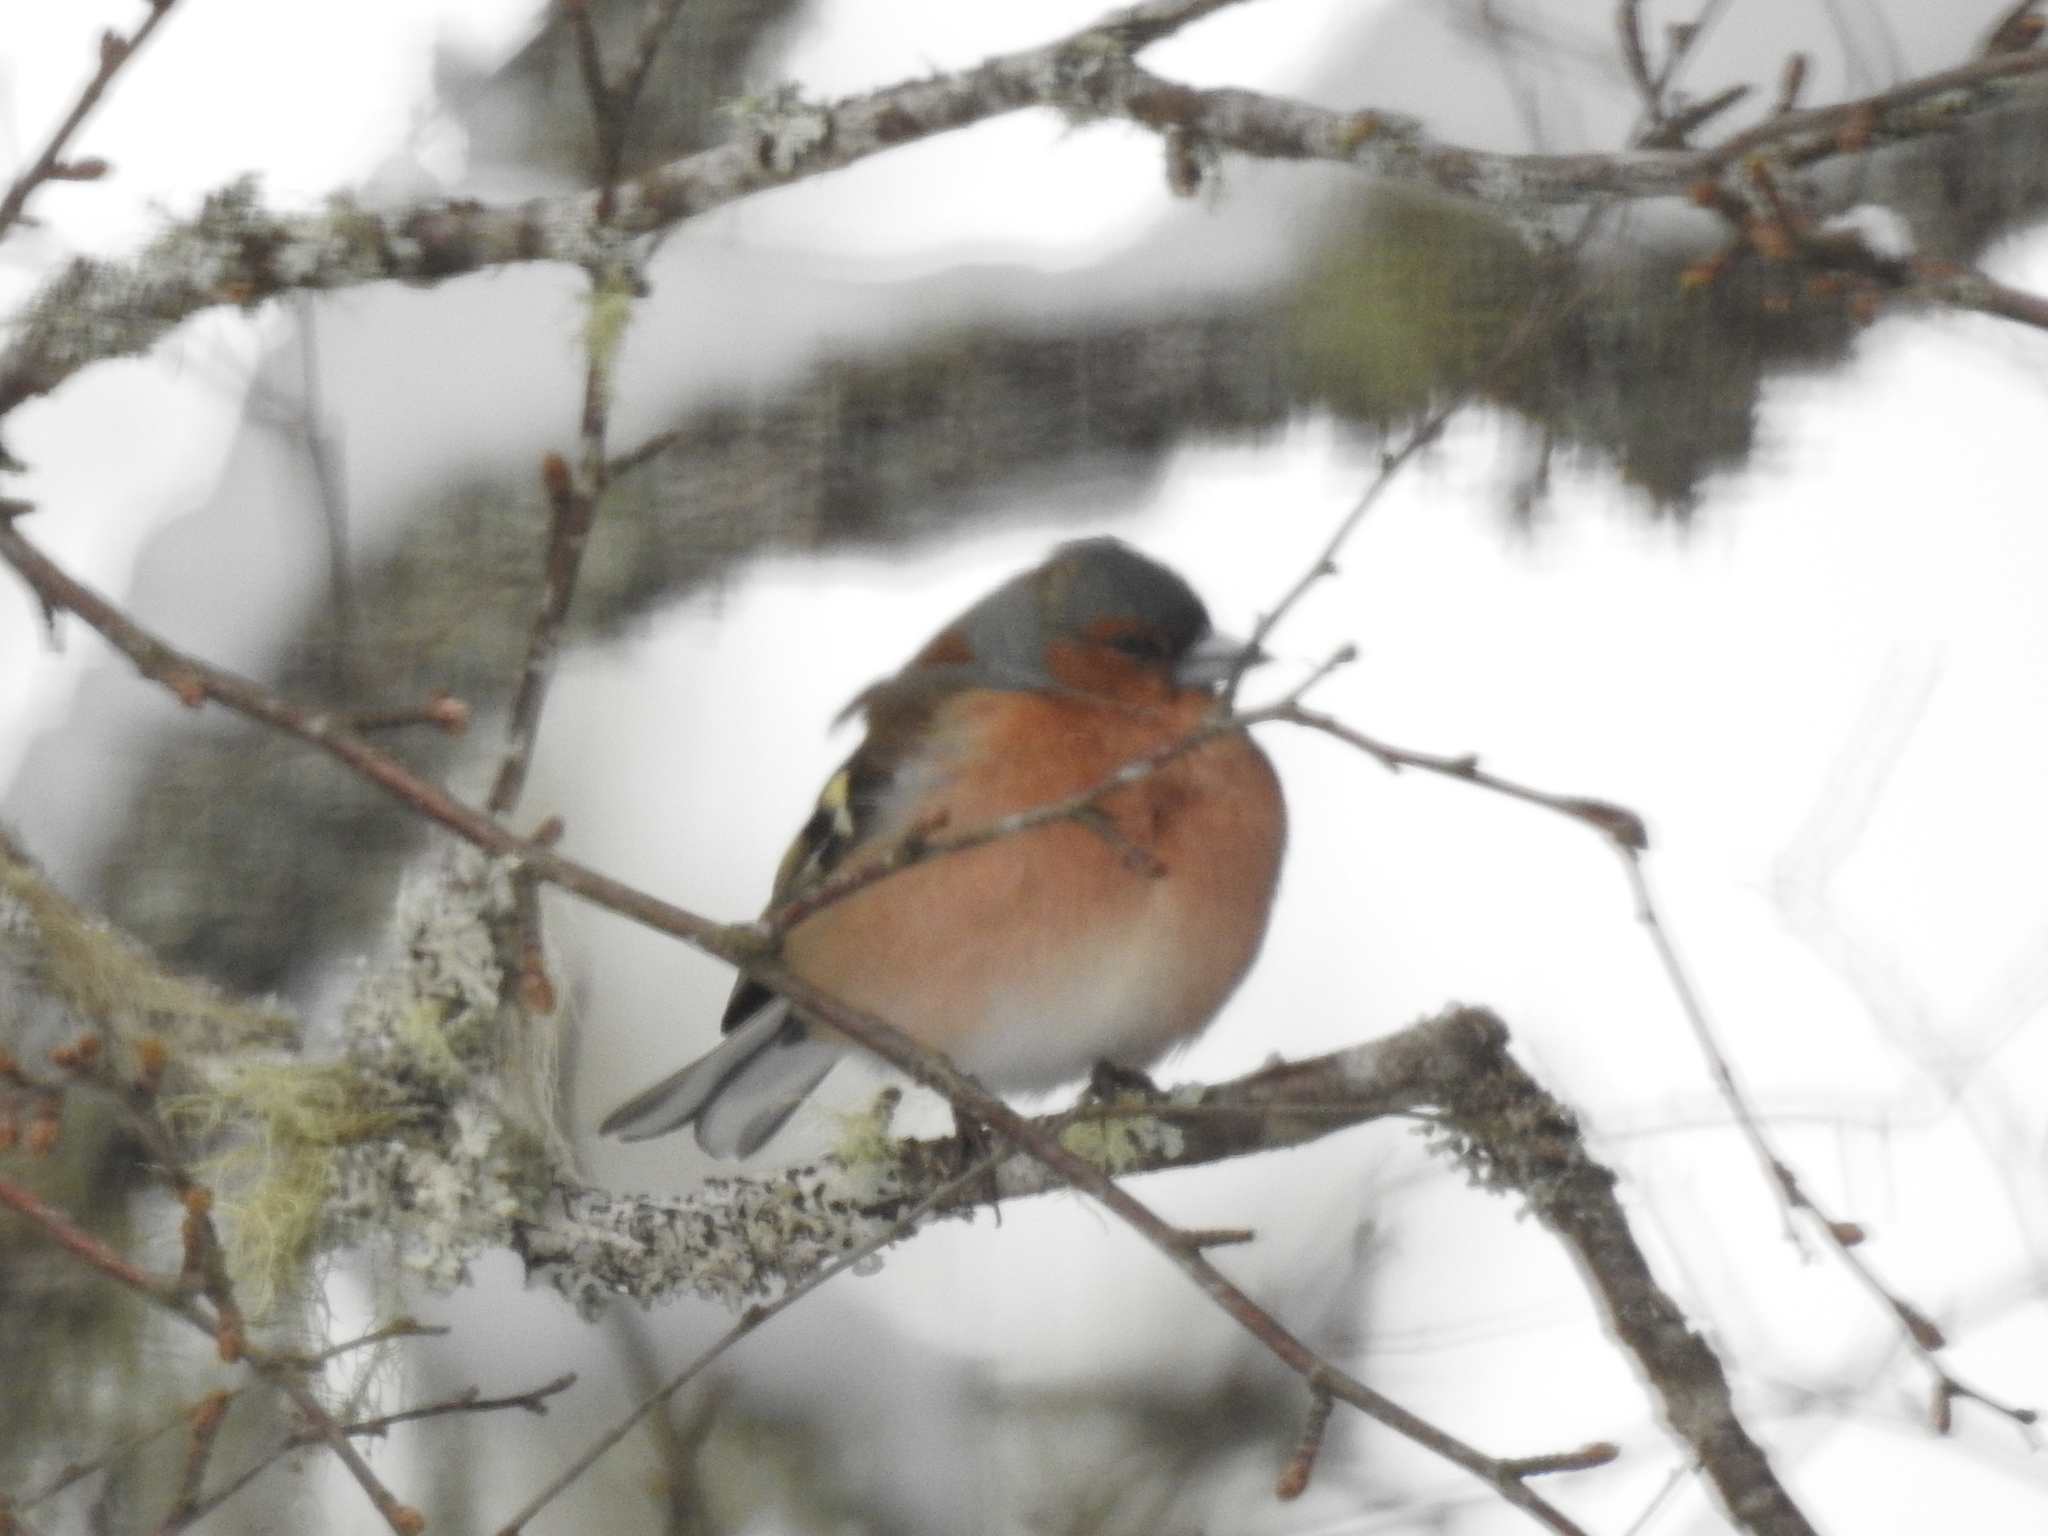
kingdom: Animalia
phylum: Chordata
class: Aves
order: Passeriformes
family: Fringillidae
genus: Fringilla
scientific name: Fringilla coelebs
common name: Common chaffinch
